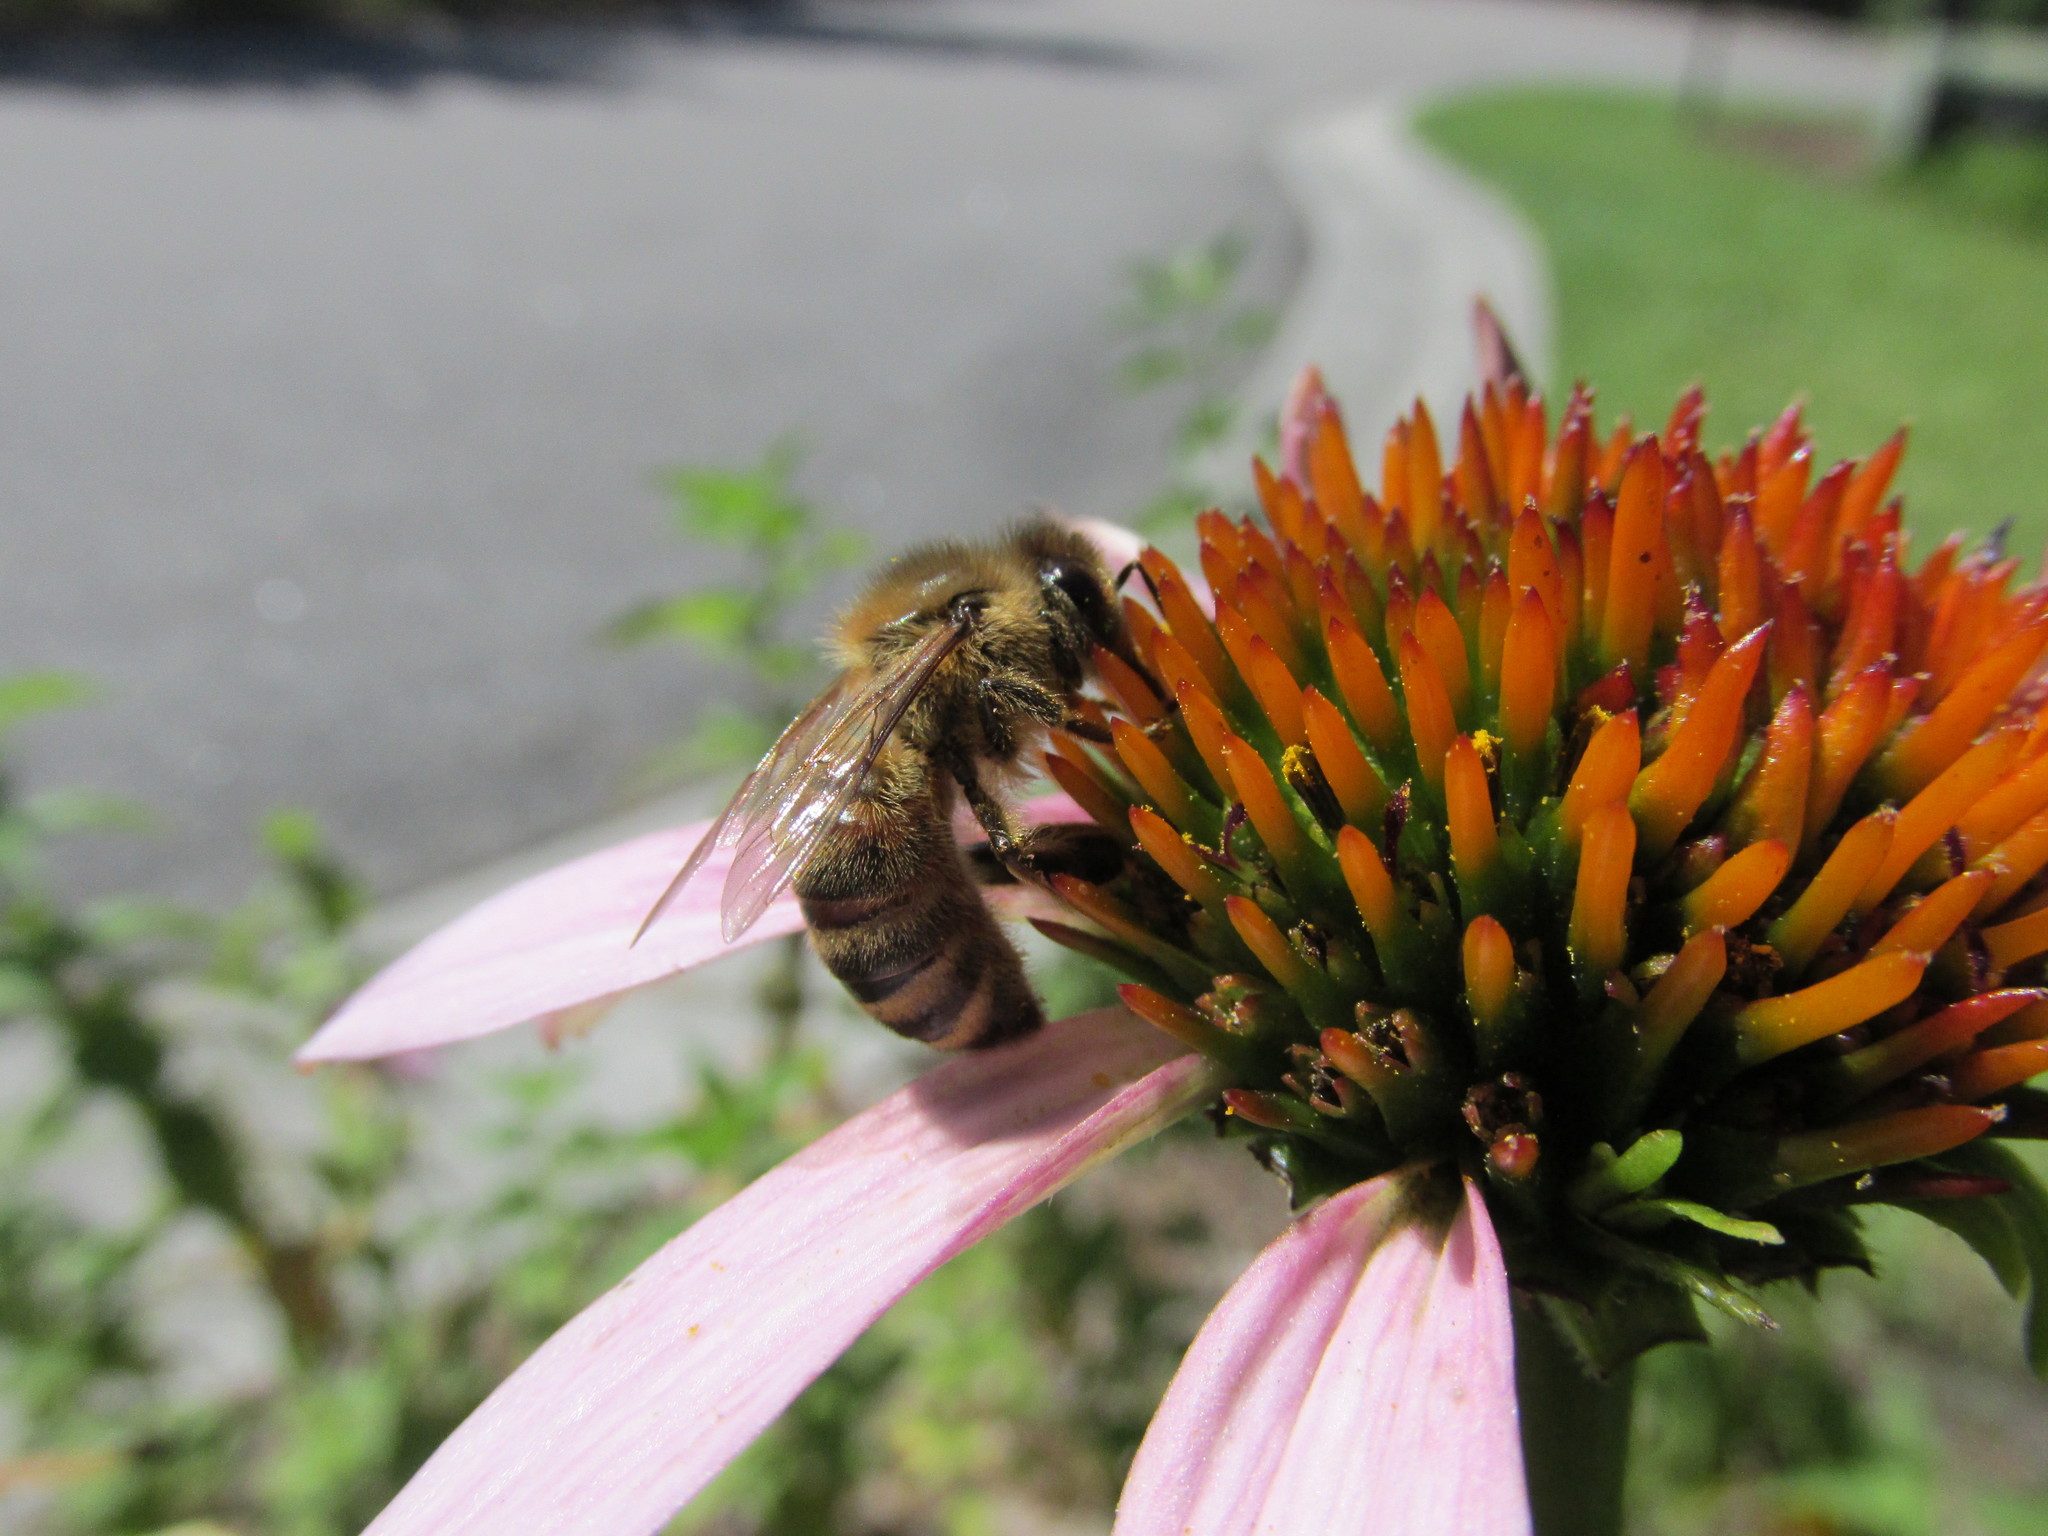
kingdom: Animalia
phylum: Arthropoda
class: Insecta
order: Hymenoptera
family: Apidae
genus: Apis
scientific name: Apis mellifera
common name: Honey bee
